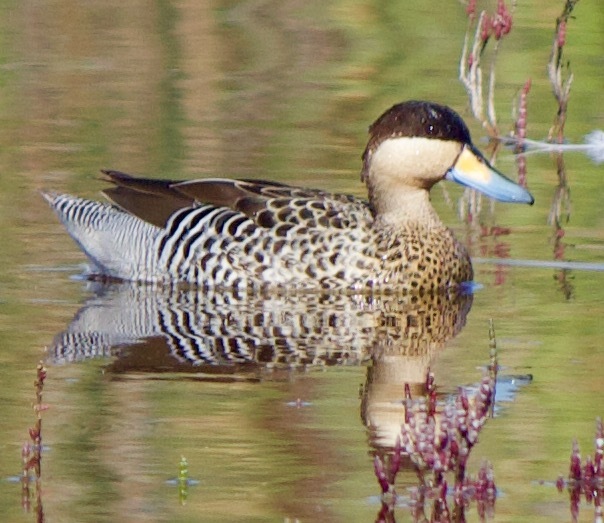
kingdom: Animalia
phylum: Chordata
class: Aves
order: Anseriformes
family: Anatidae
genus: Spatula
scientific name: Spatula versicolor
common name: Silver teal
